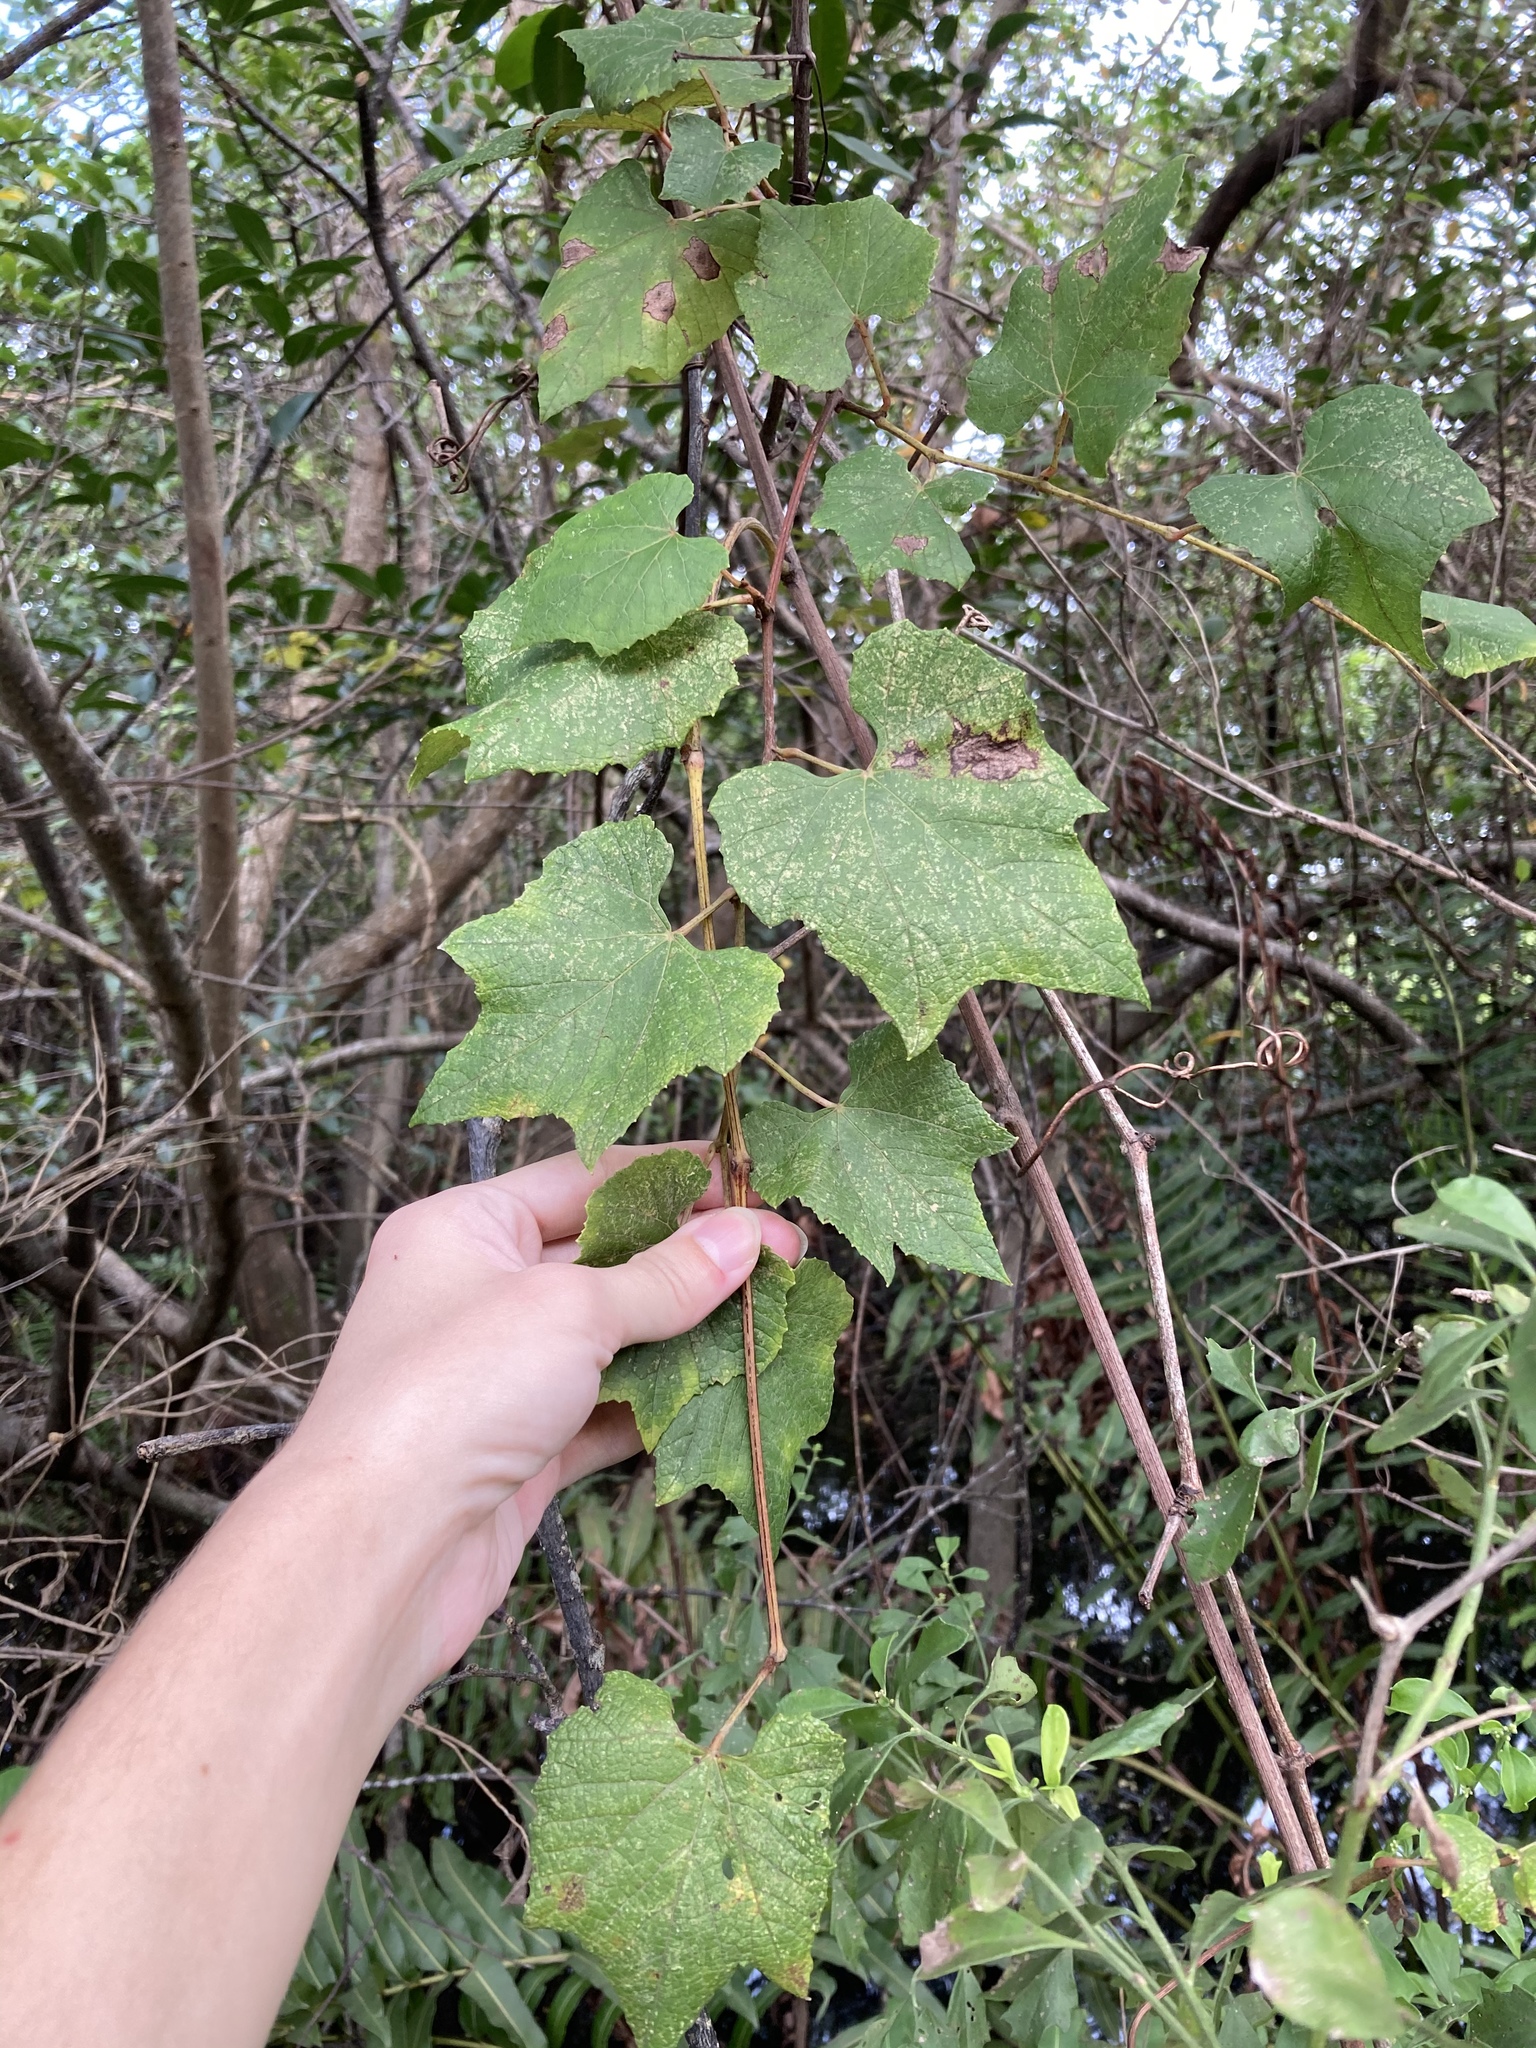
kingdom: Plantae
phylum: Tracheophyta
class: Magnoliopsida
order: Vitales
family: Vitaceae
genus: Vitis
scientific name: Vitis cinerea
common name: Ashy grape
